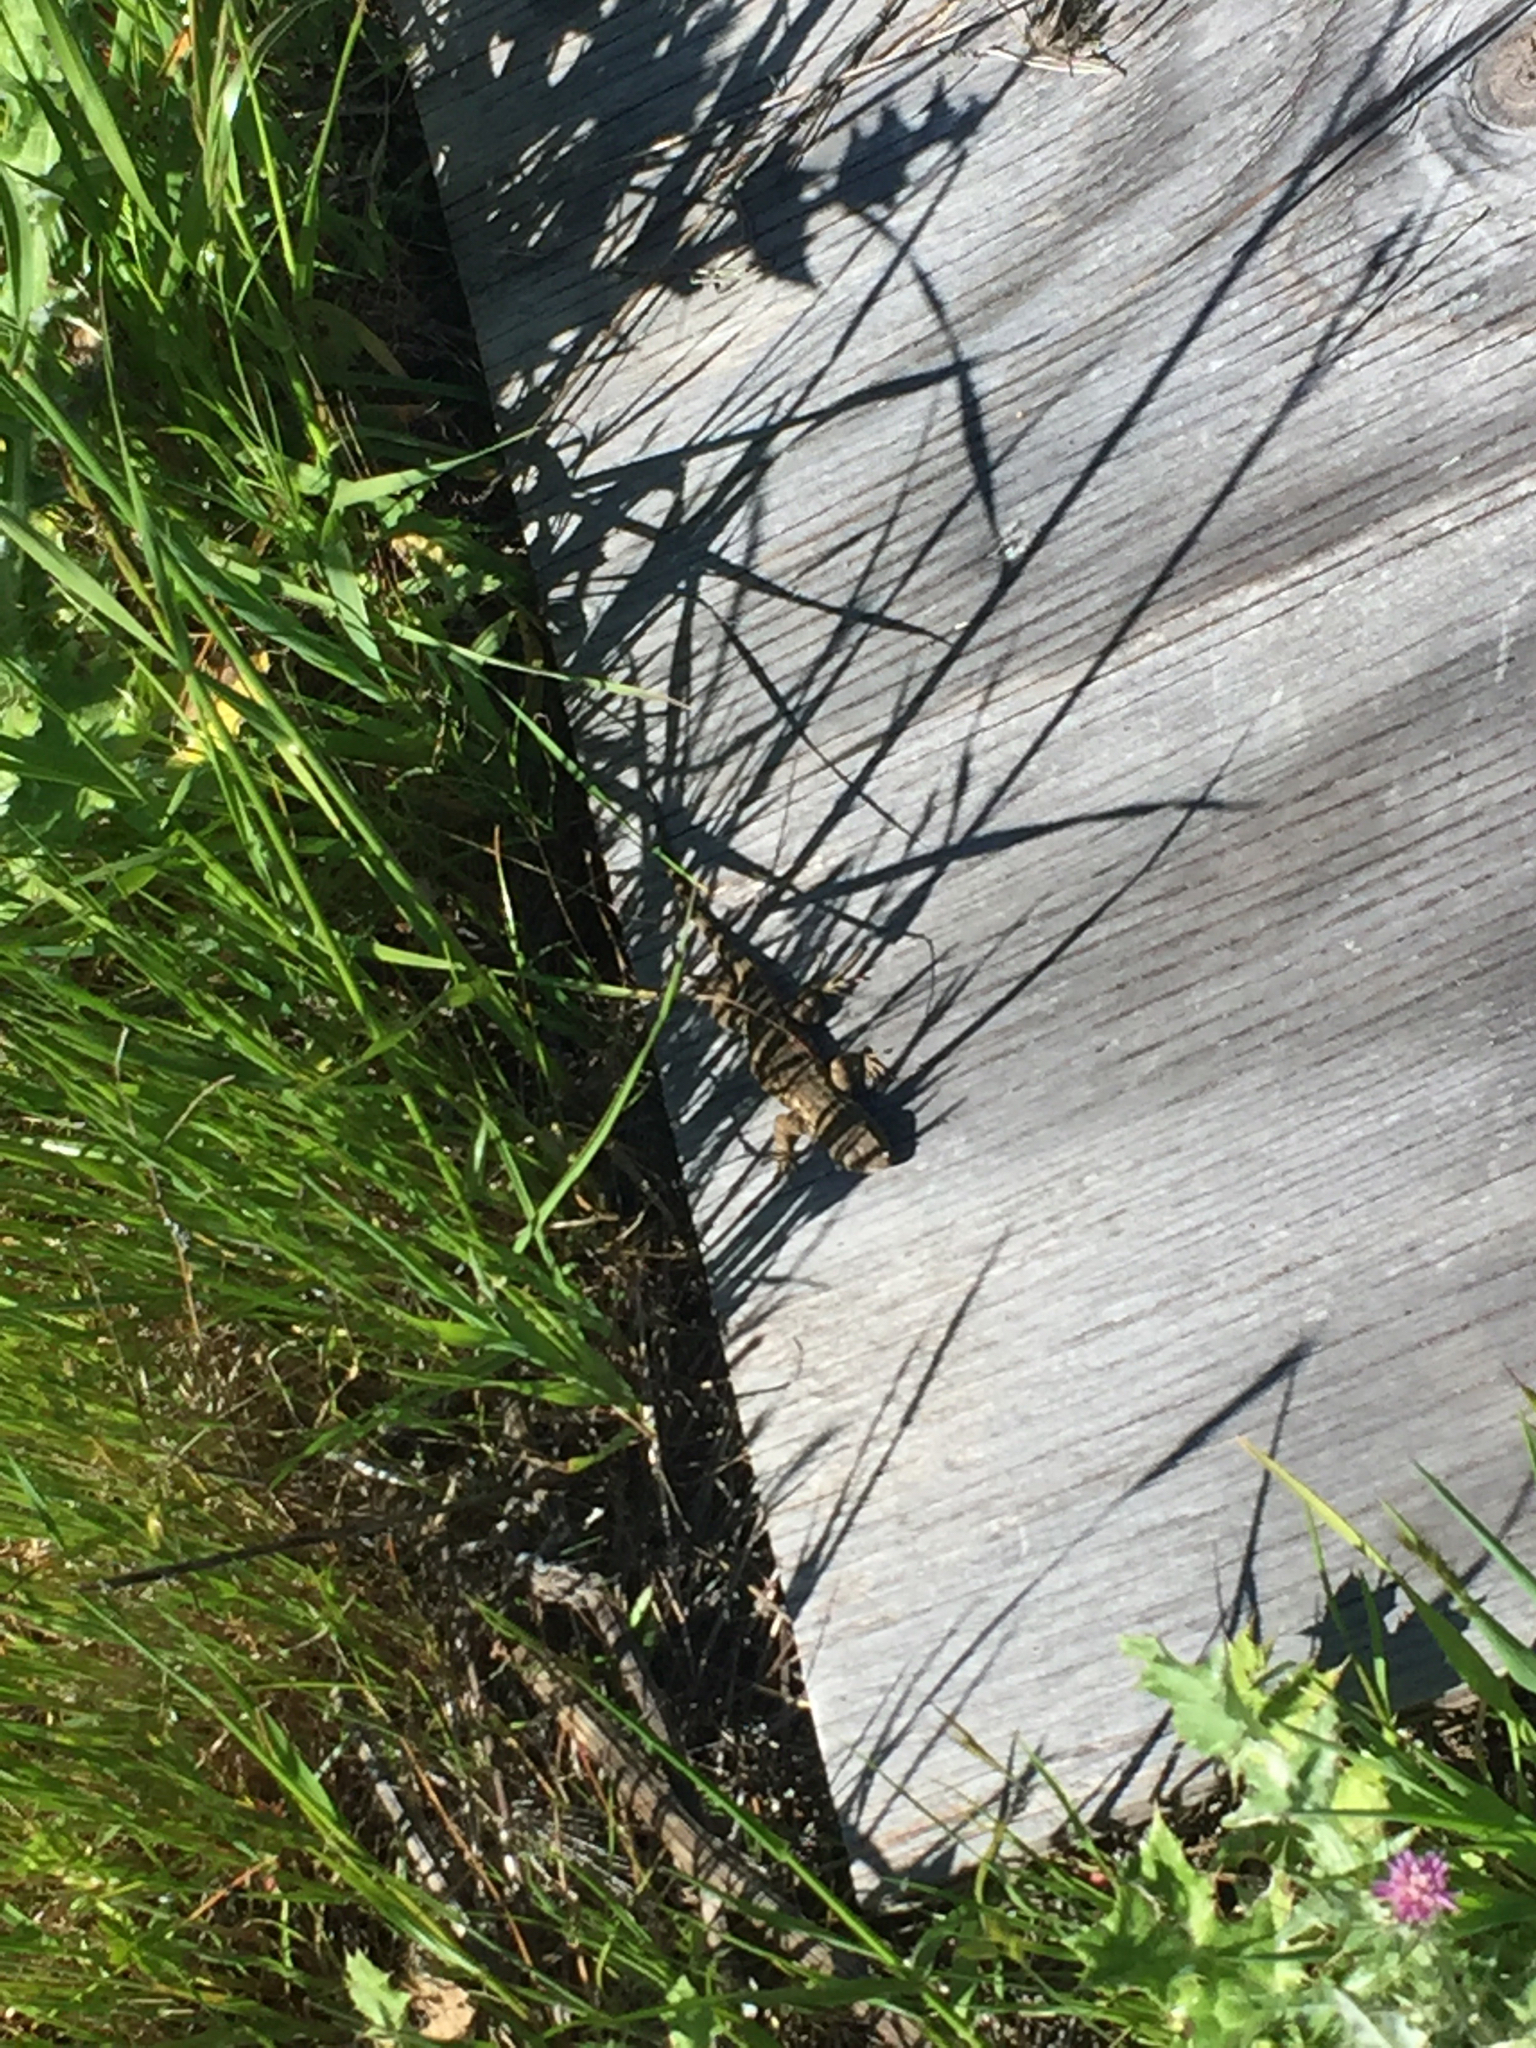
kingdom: Animalia
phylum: Chordata
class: Squamata
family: Phrynosomatidae
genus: Sceloporus
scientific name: Sceloporus occidentalis
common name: Western fence lizard
